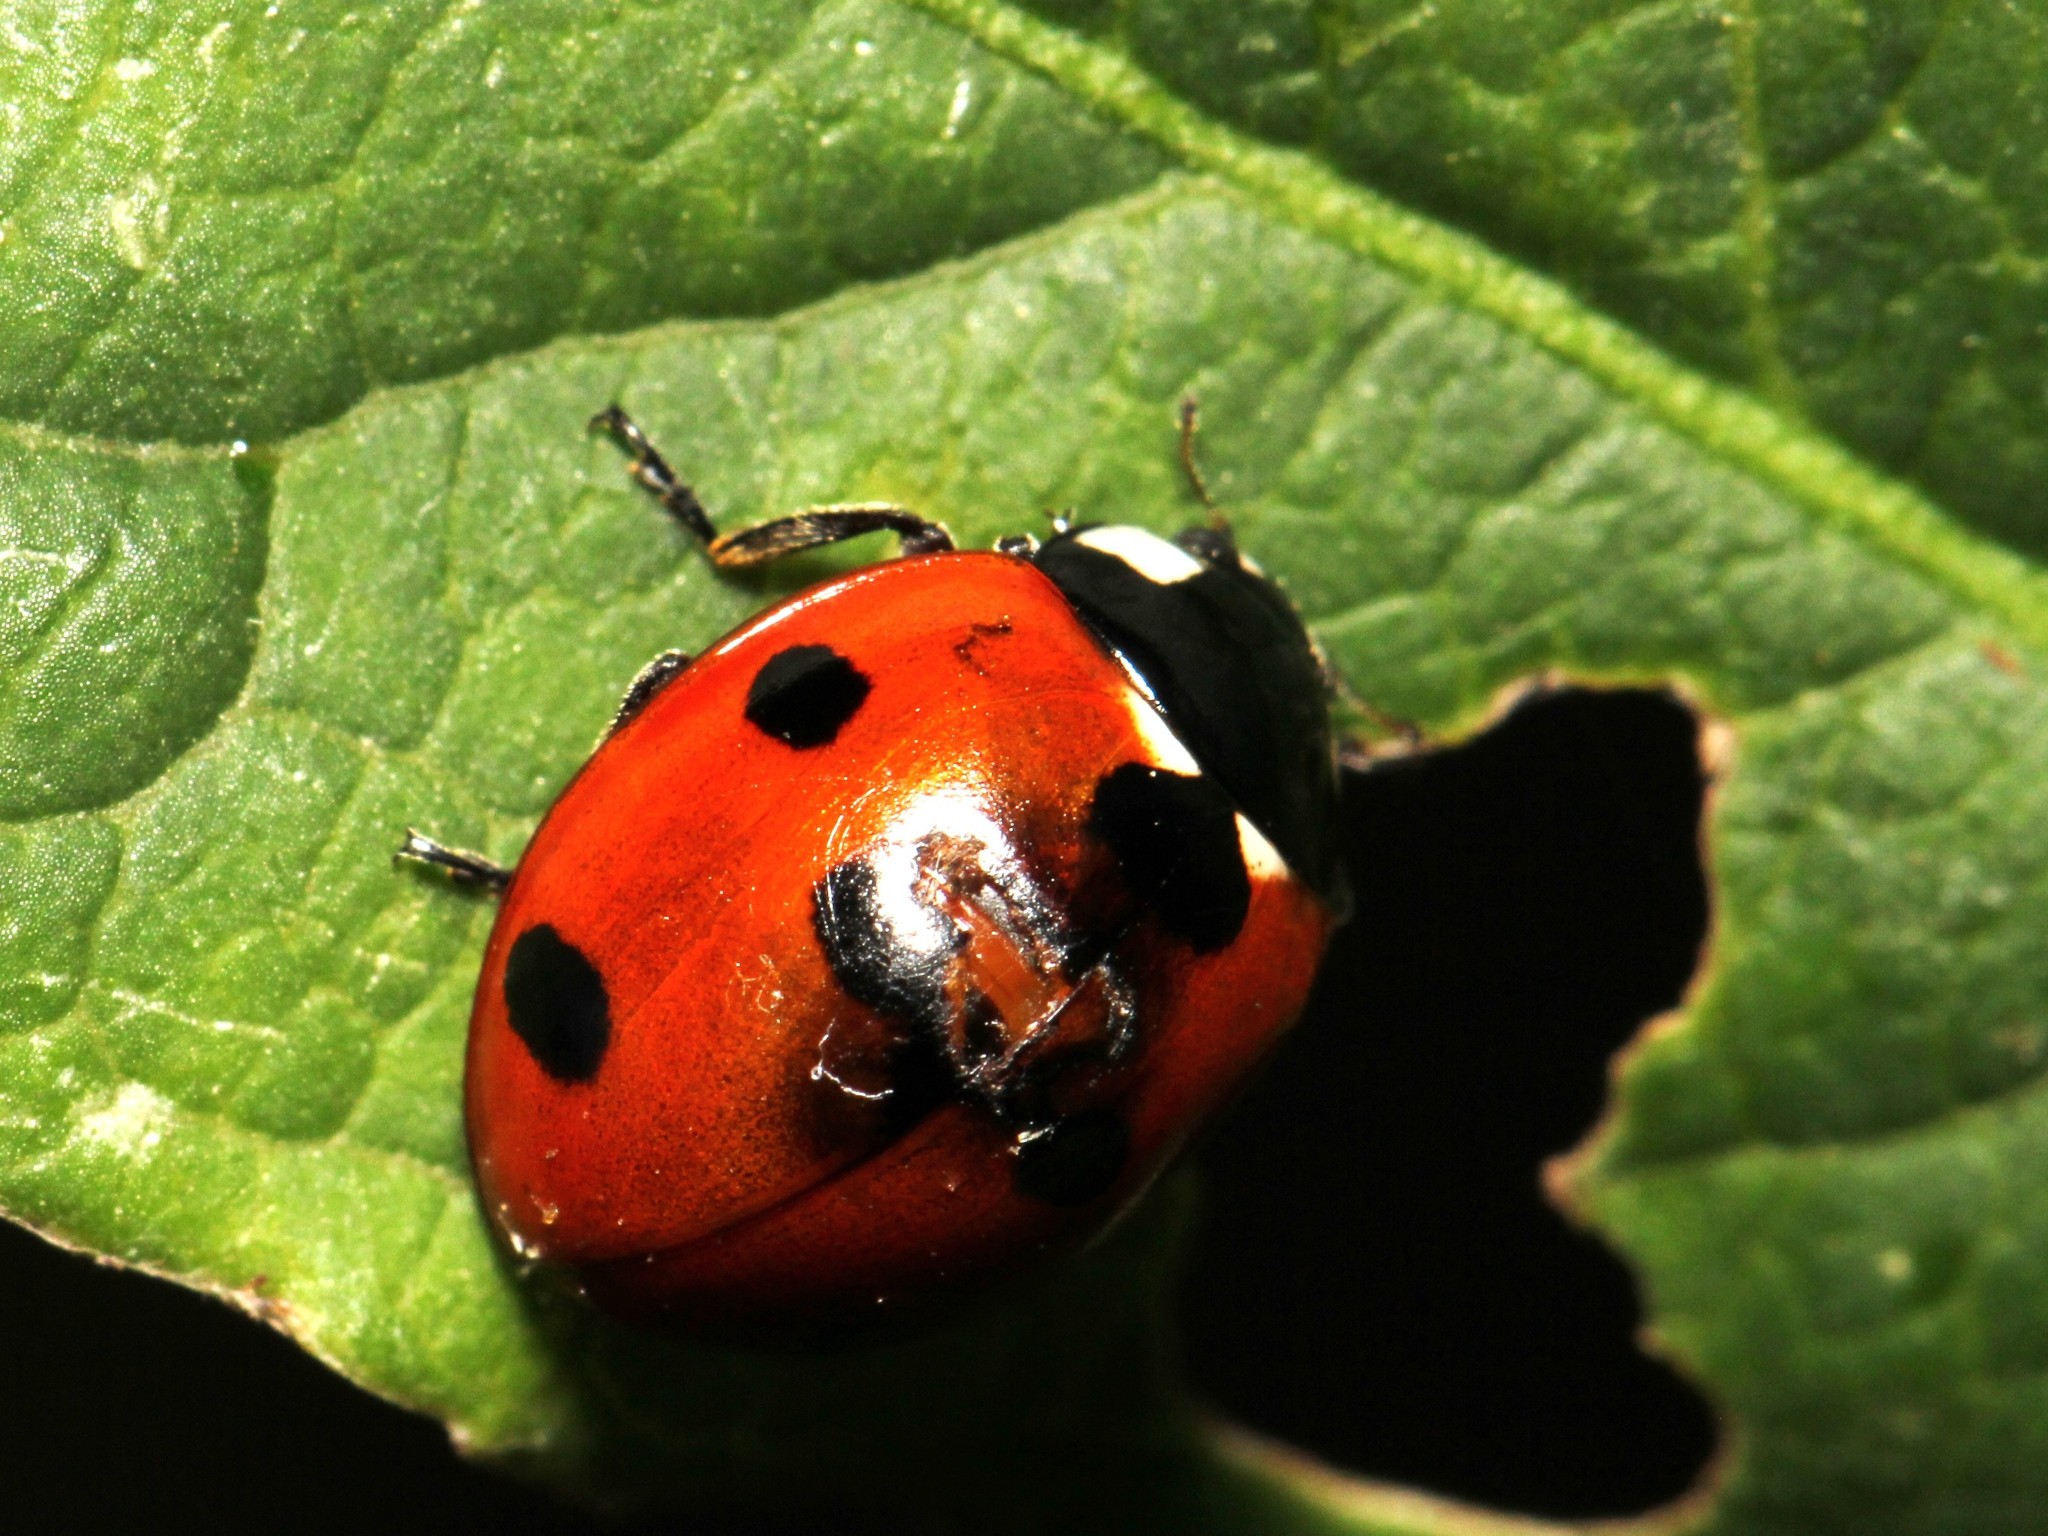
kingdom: Animalia
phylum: Arthropoda
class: Insecta
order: Coleoptera
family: Coccinellidae
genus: Coccinella
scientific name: Coccinella septempunctata
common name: Sevenspotted lady beetle
